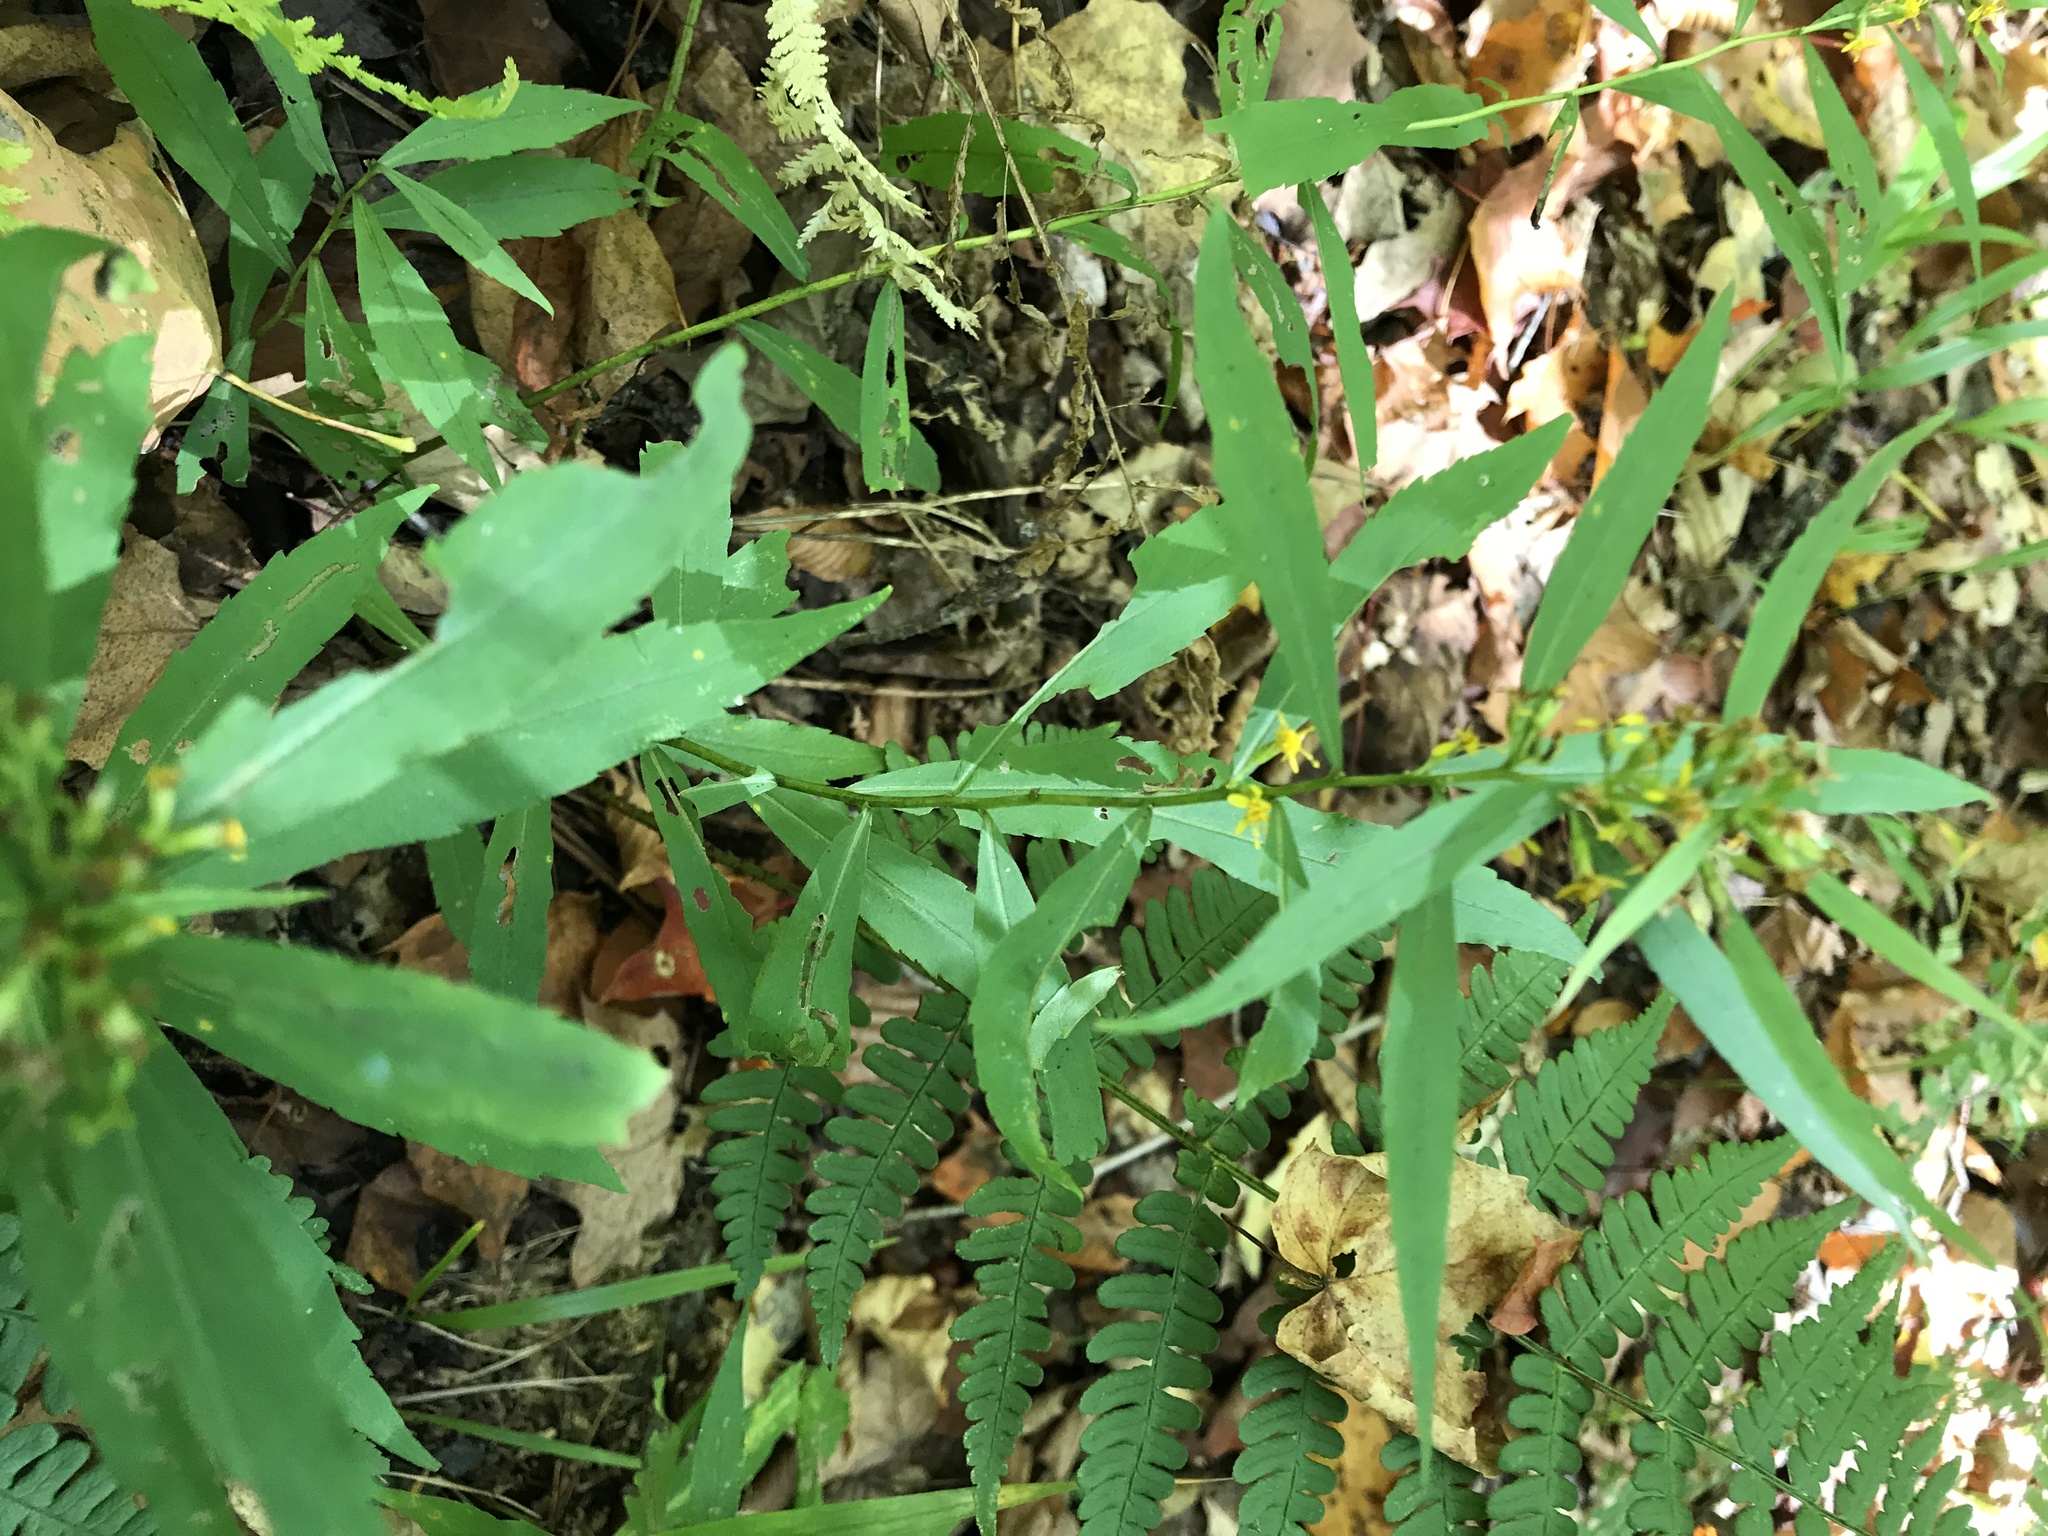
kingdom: Plantae
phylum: Tracheophyta
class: Magnoliopsida
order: Asterales
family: Asteraceae
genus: Solidago
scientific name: Solidago caesia
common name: Woodland goldenrod
